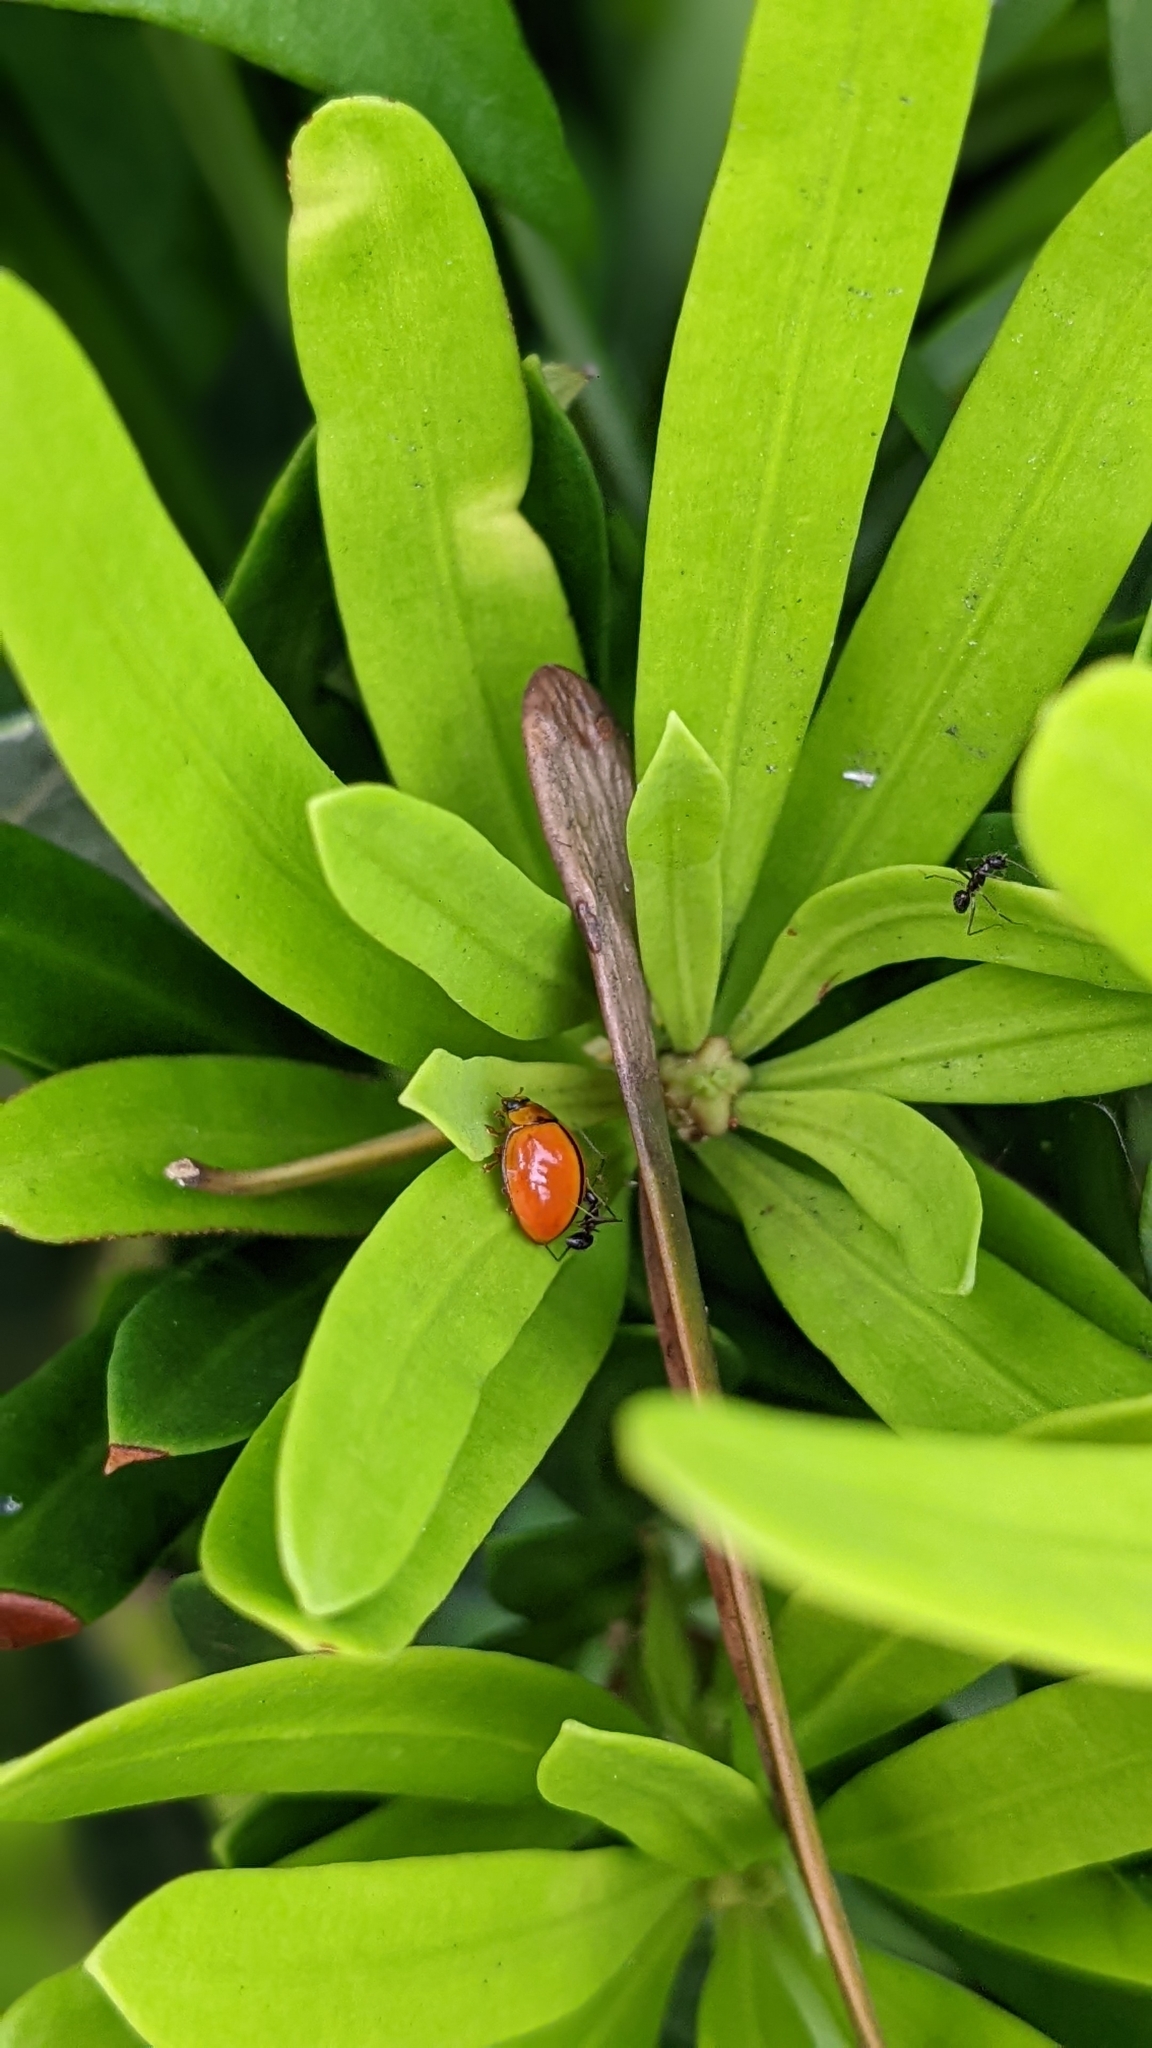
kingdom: Animalia
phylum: Arthropoda
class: Insecta
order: Coleoptera
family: Coccinellidae
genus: Micraspis
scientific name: Micraspis discolor
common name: Lady beetle
